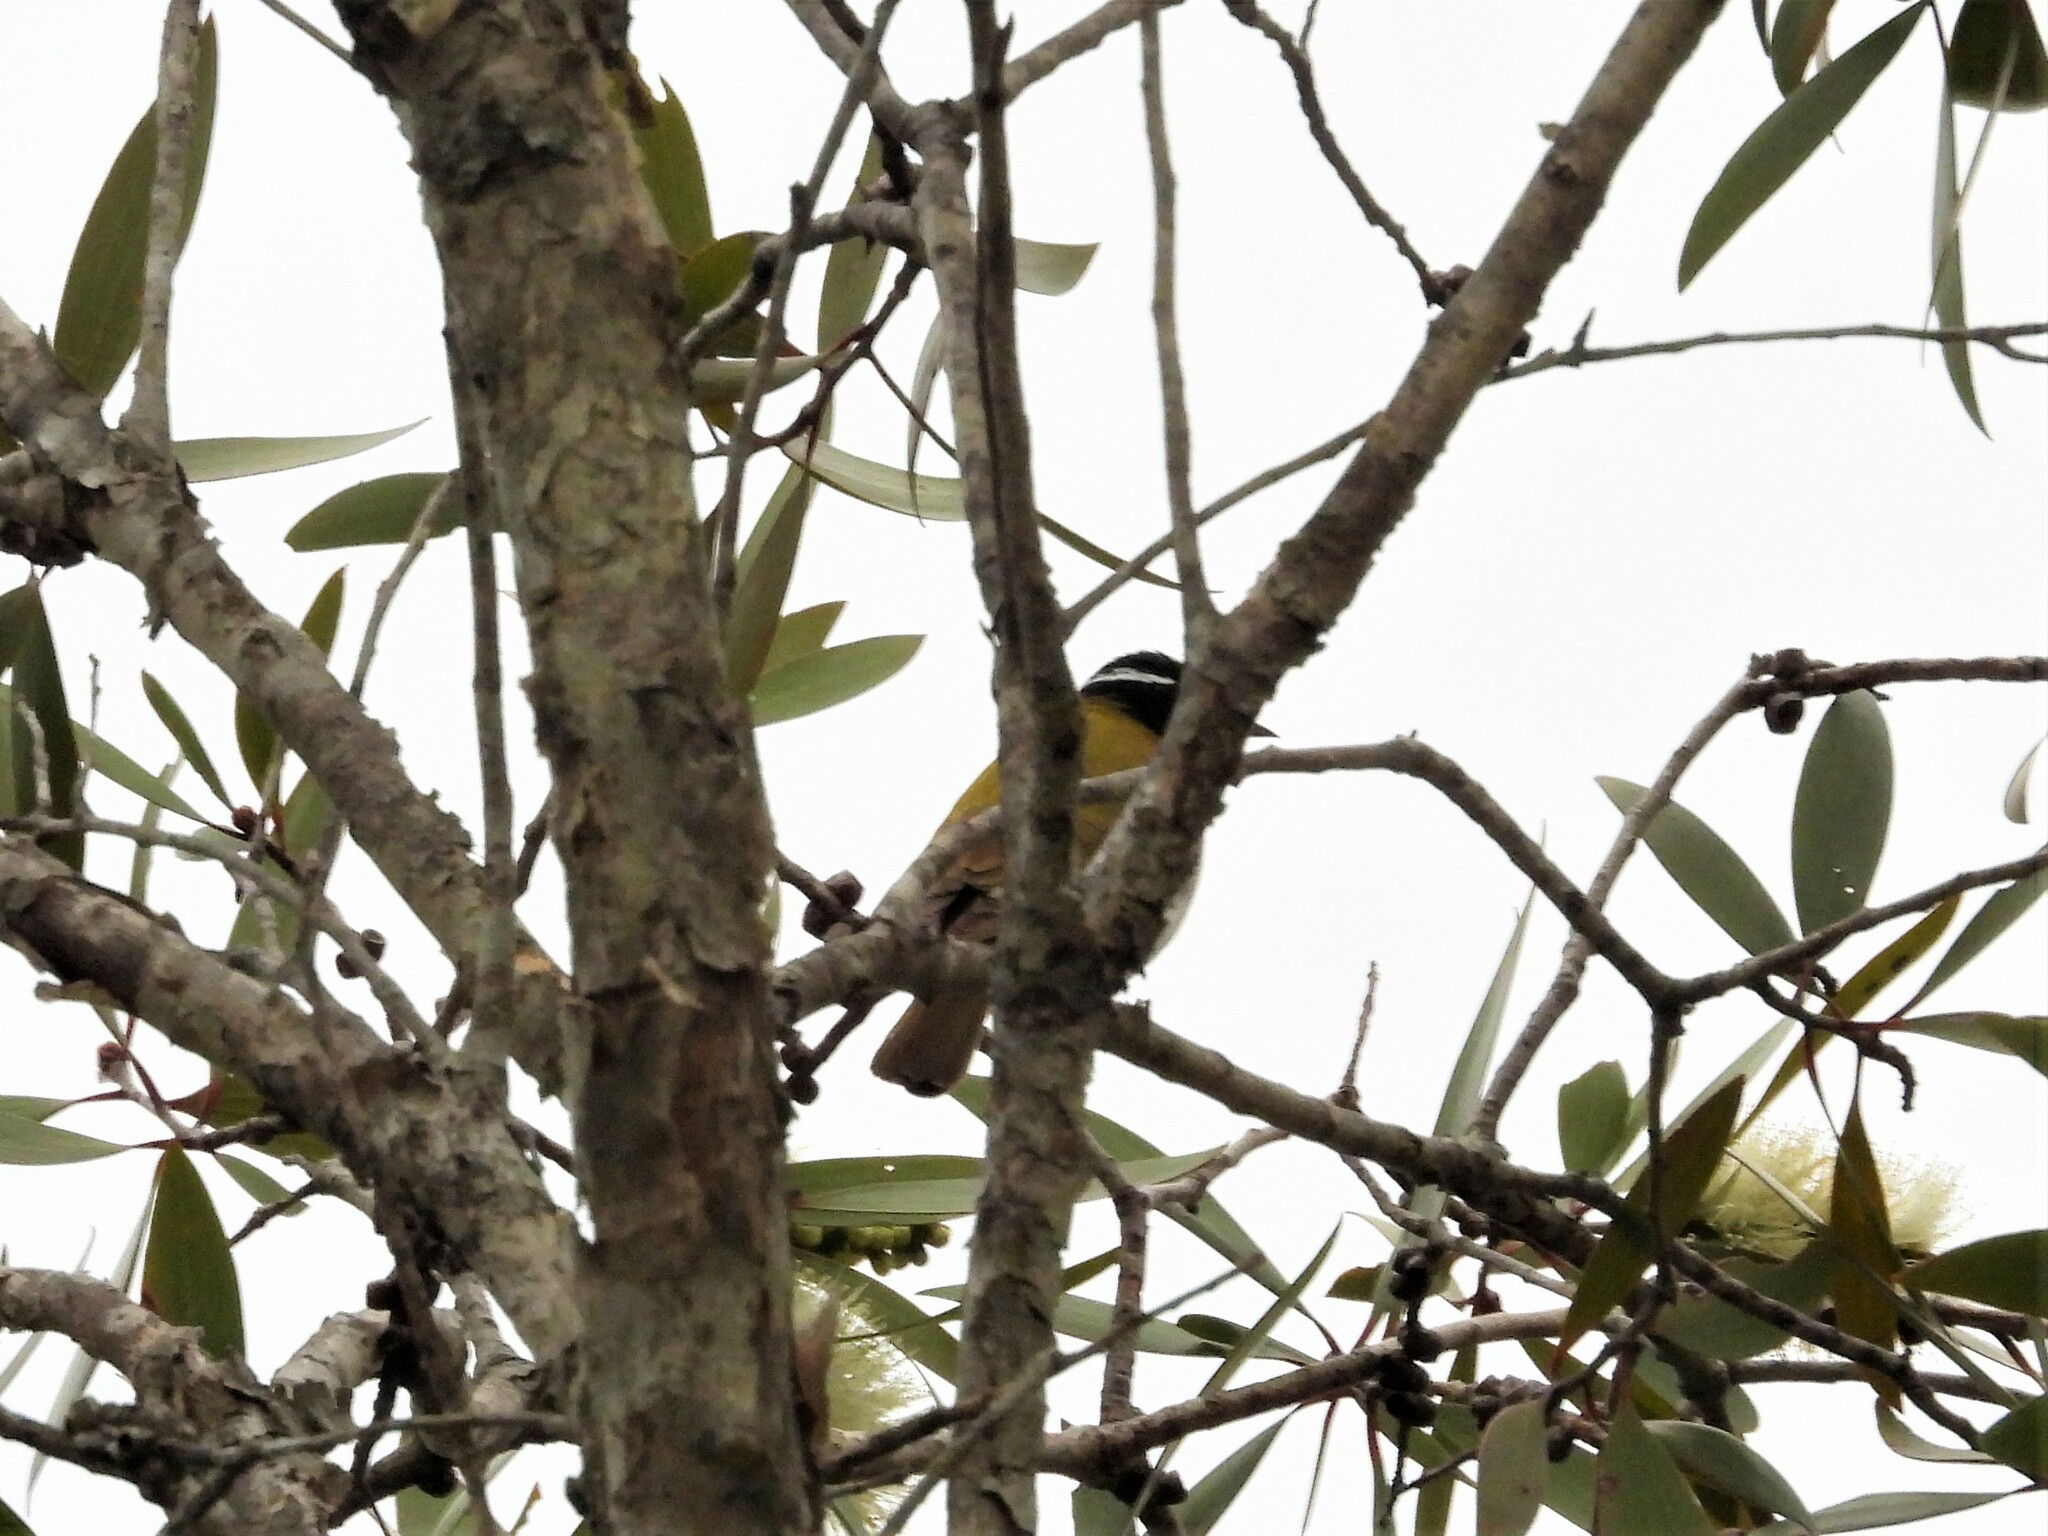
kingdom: Animalia
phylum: Chordata
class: Aves
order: Passeriformes
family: Meliphagidae
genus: Melithreptus
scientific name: Melithreptus albogularis
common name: White-throated honeyeater
